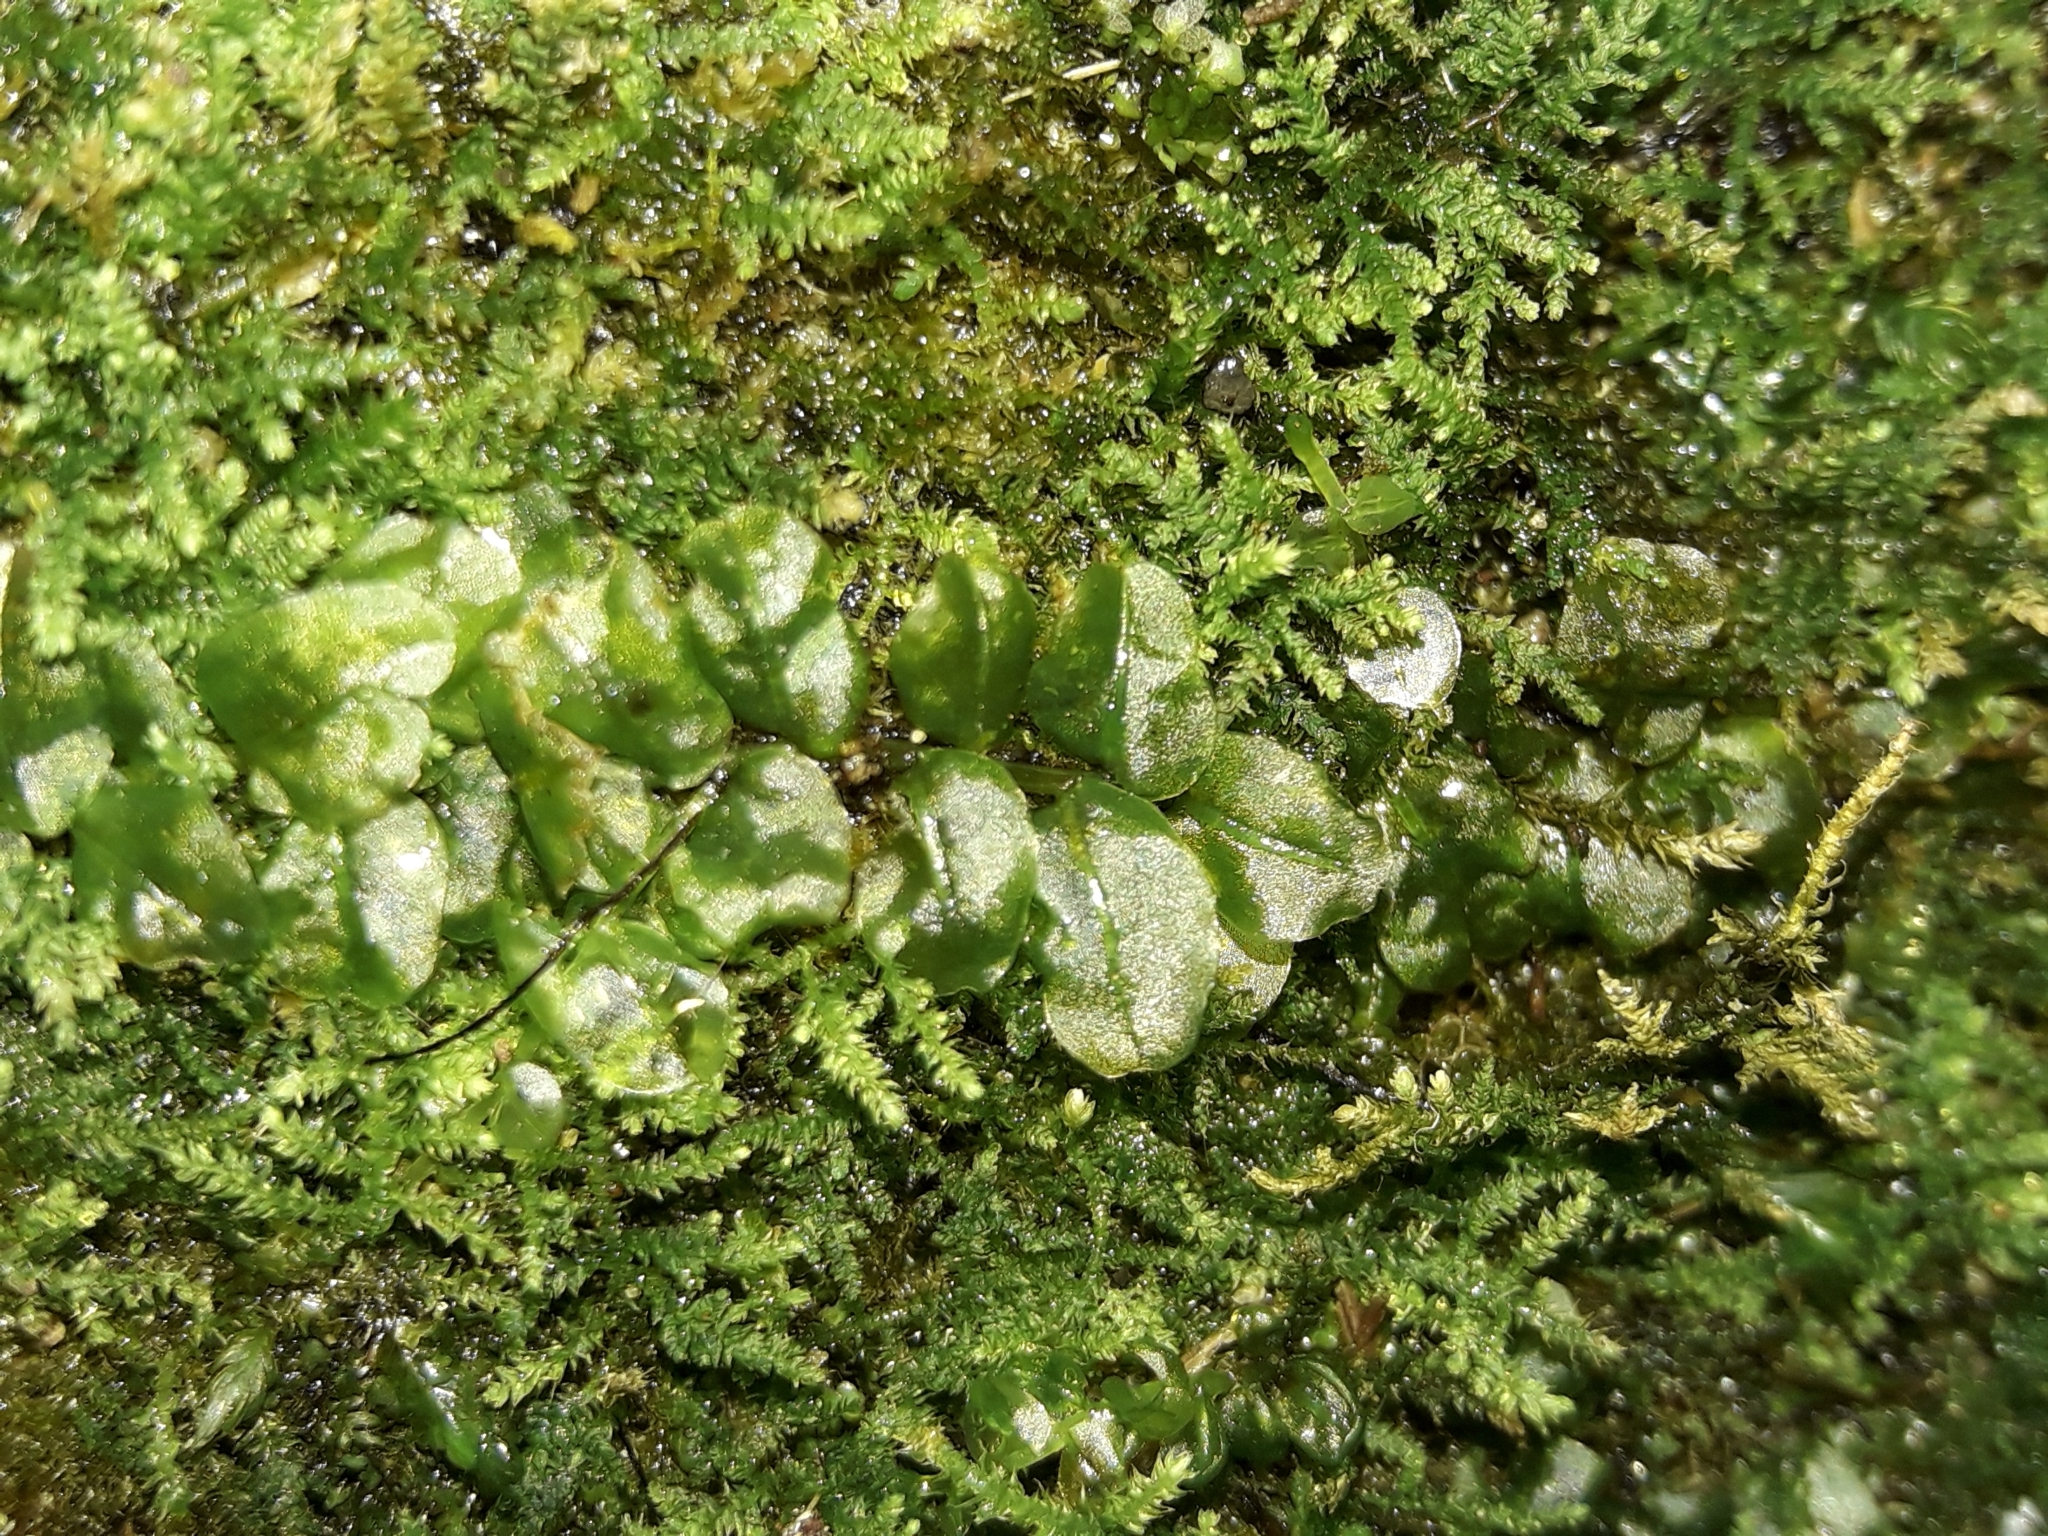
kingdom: Plantae
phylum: Bryophyta
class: Bryopsida
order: Bryales
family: Mniaceae
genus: Plagiomnium
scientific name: Plagiomnium novae-zealandiae
